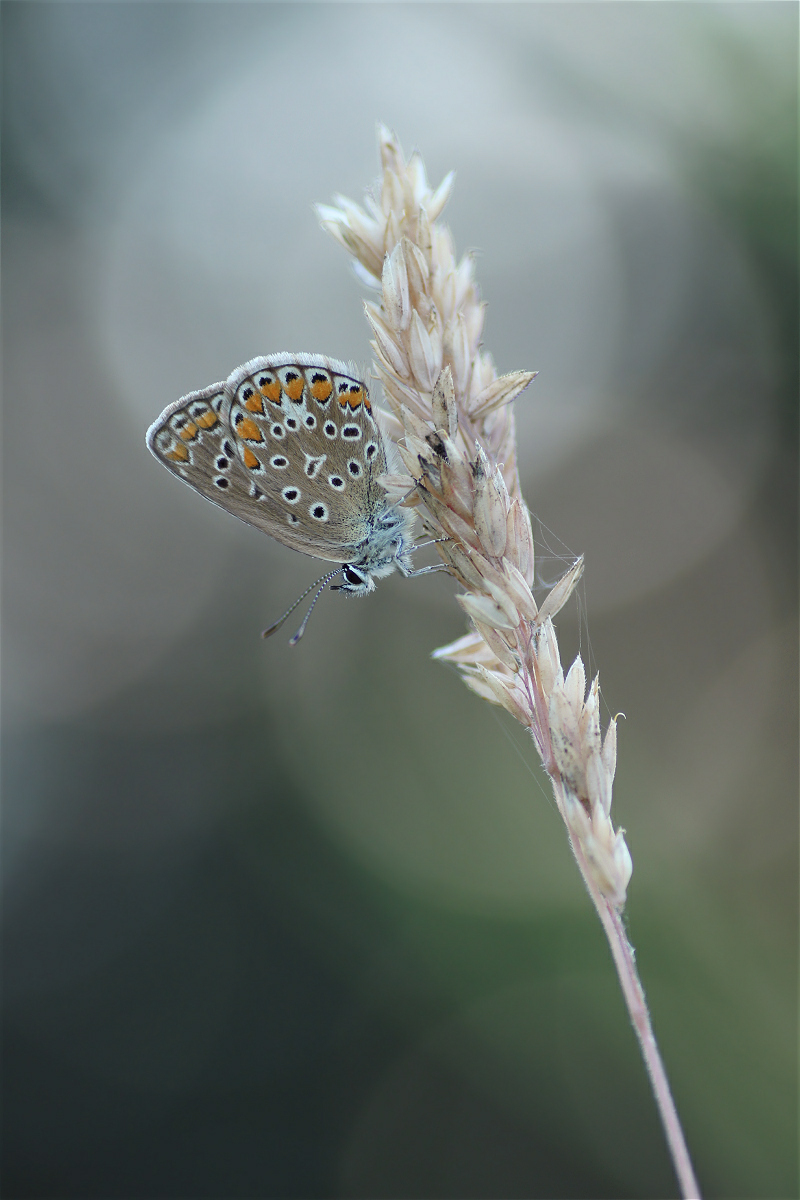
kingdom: Animalia
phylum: Arthropoda
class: Insecta
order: Lepidoptera
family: Lycaenidae
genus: Polyommatus
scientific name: Polyommatus icarus
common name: Common blue
